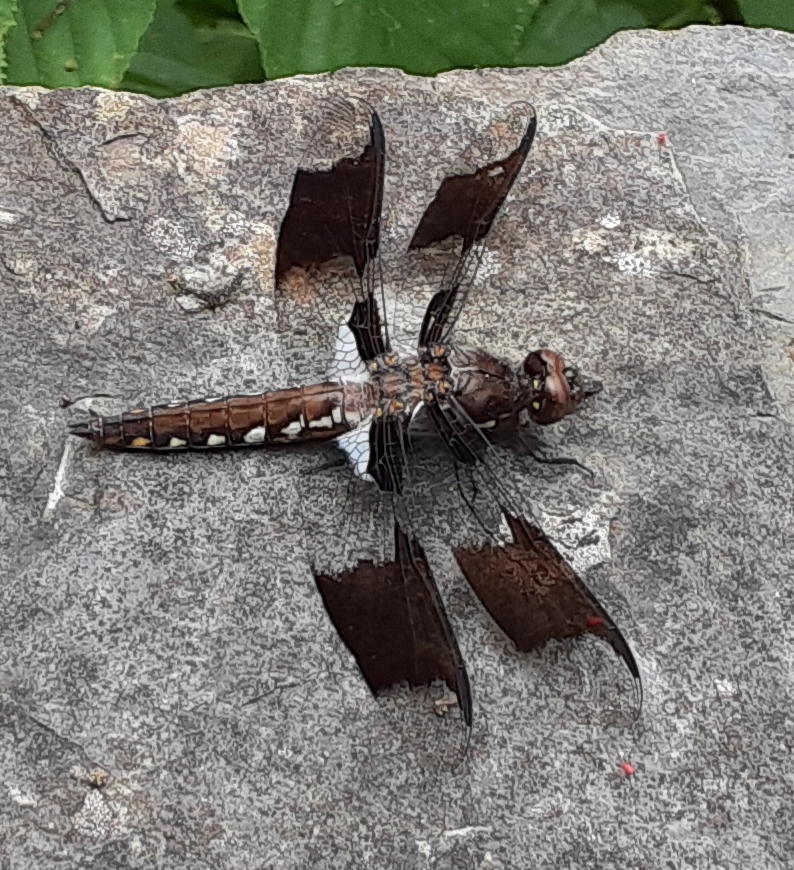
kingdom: Animalia
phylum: Arthropoda
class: Insecta
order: Odonata
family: Libellulidae
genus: Plathemis
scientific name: Plathemis lydia
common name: Common whitetail
